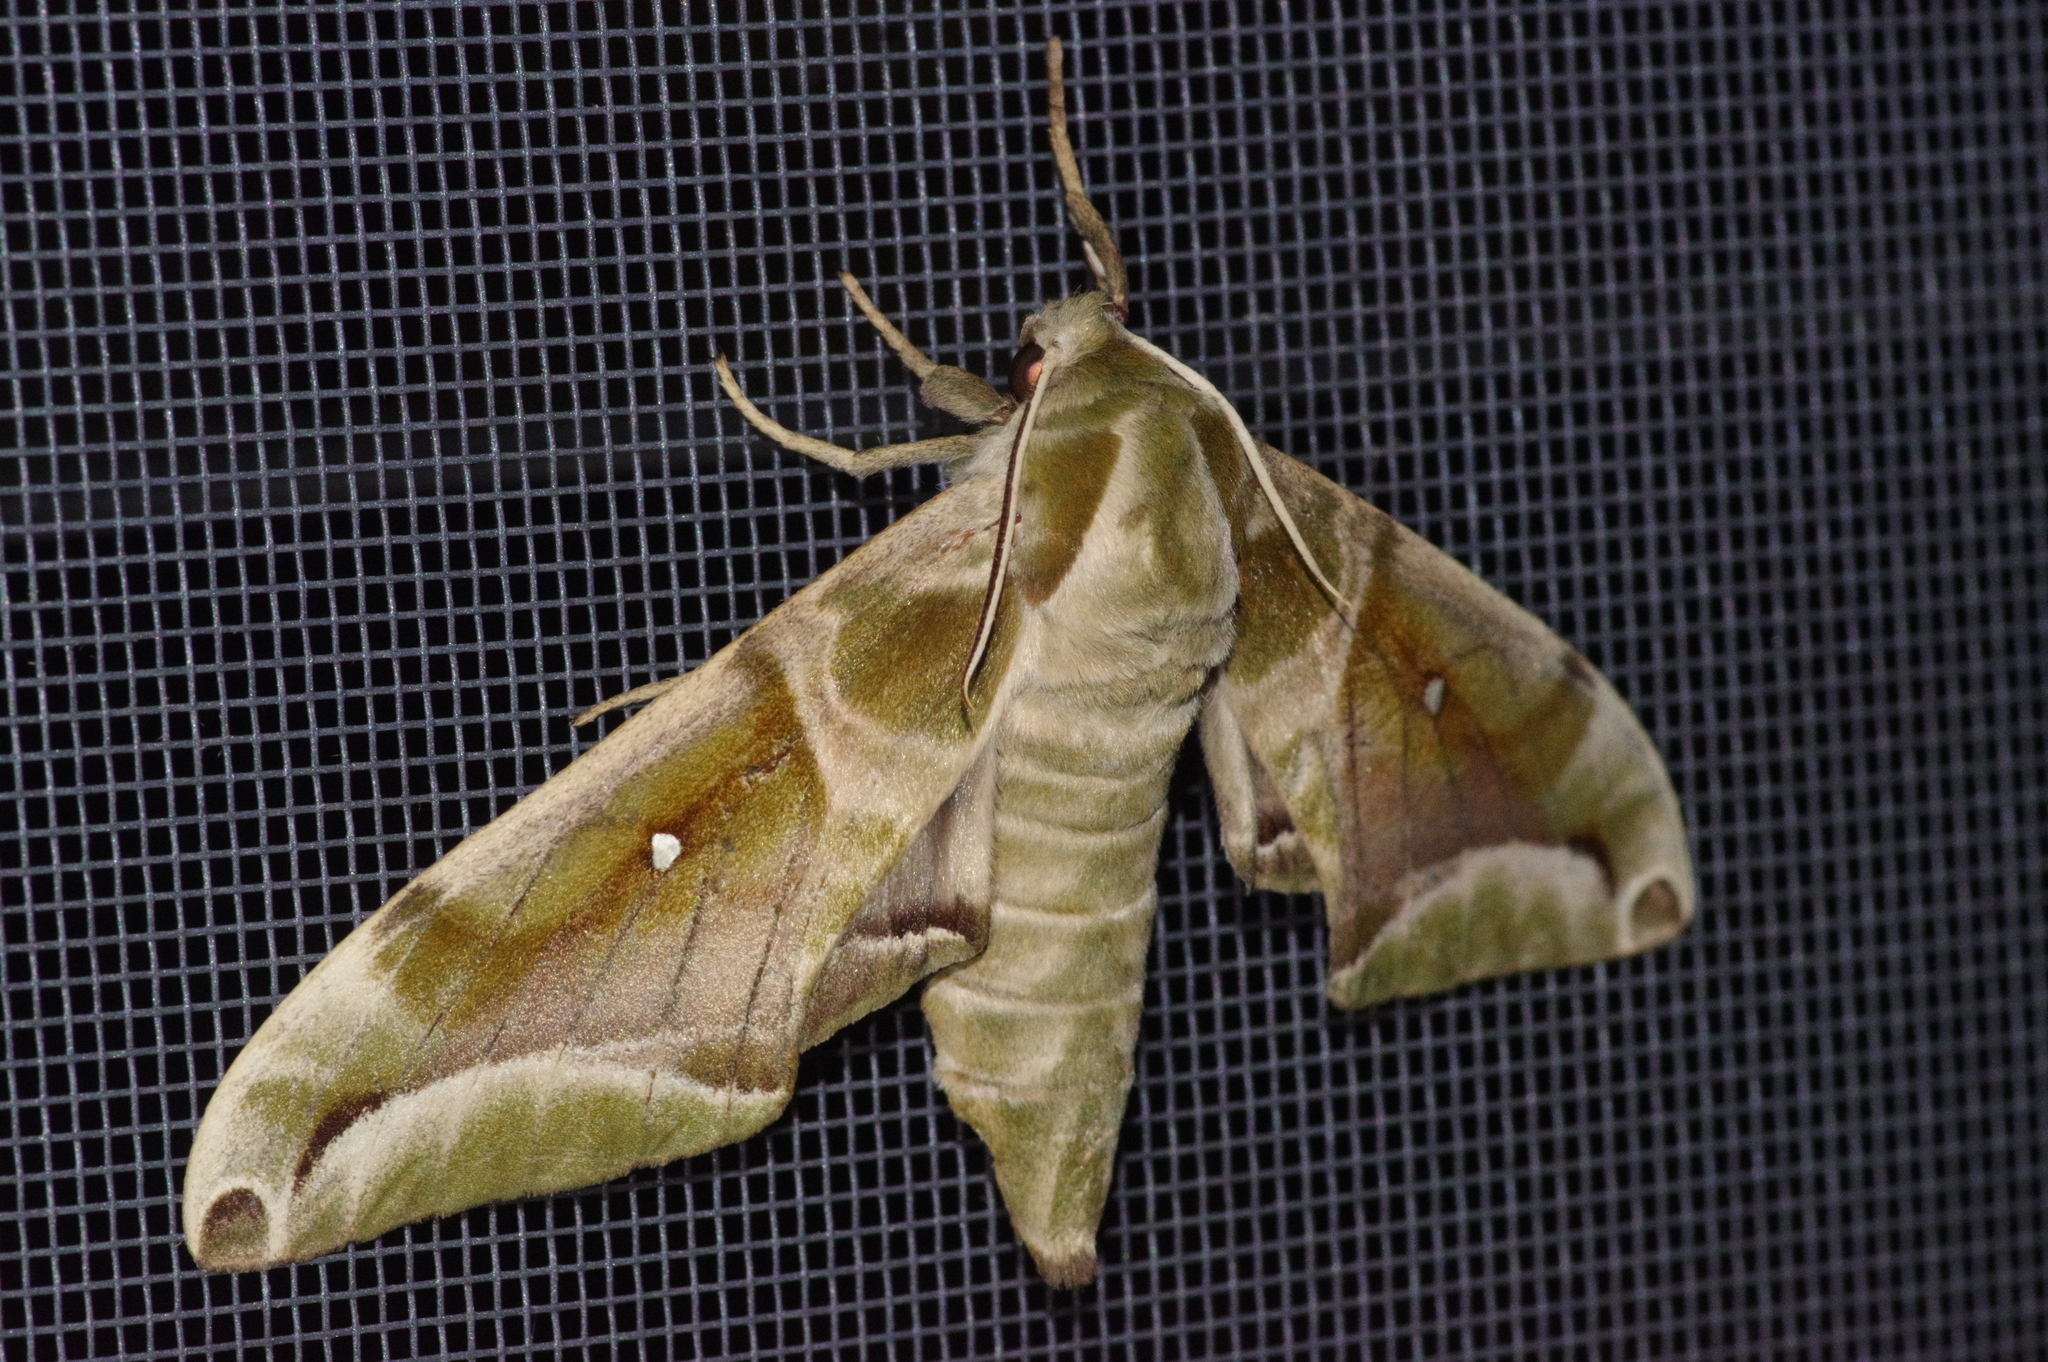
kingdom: Animalia
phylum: Arthropoda
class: Insecta
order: Lepidoptera
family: Sphingidae
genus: Parum
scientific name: Parum colligata
